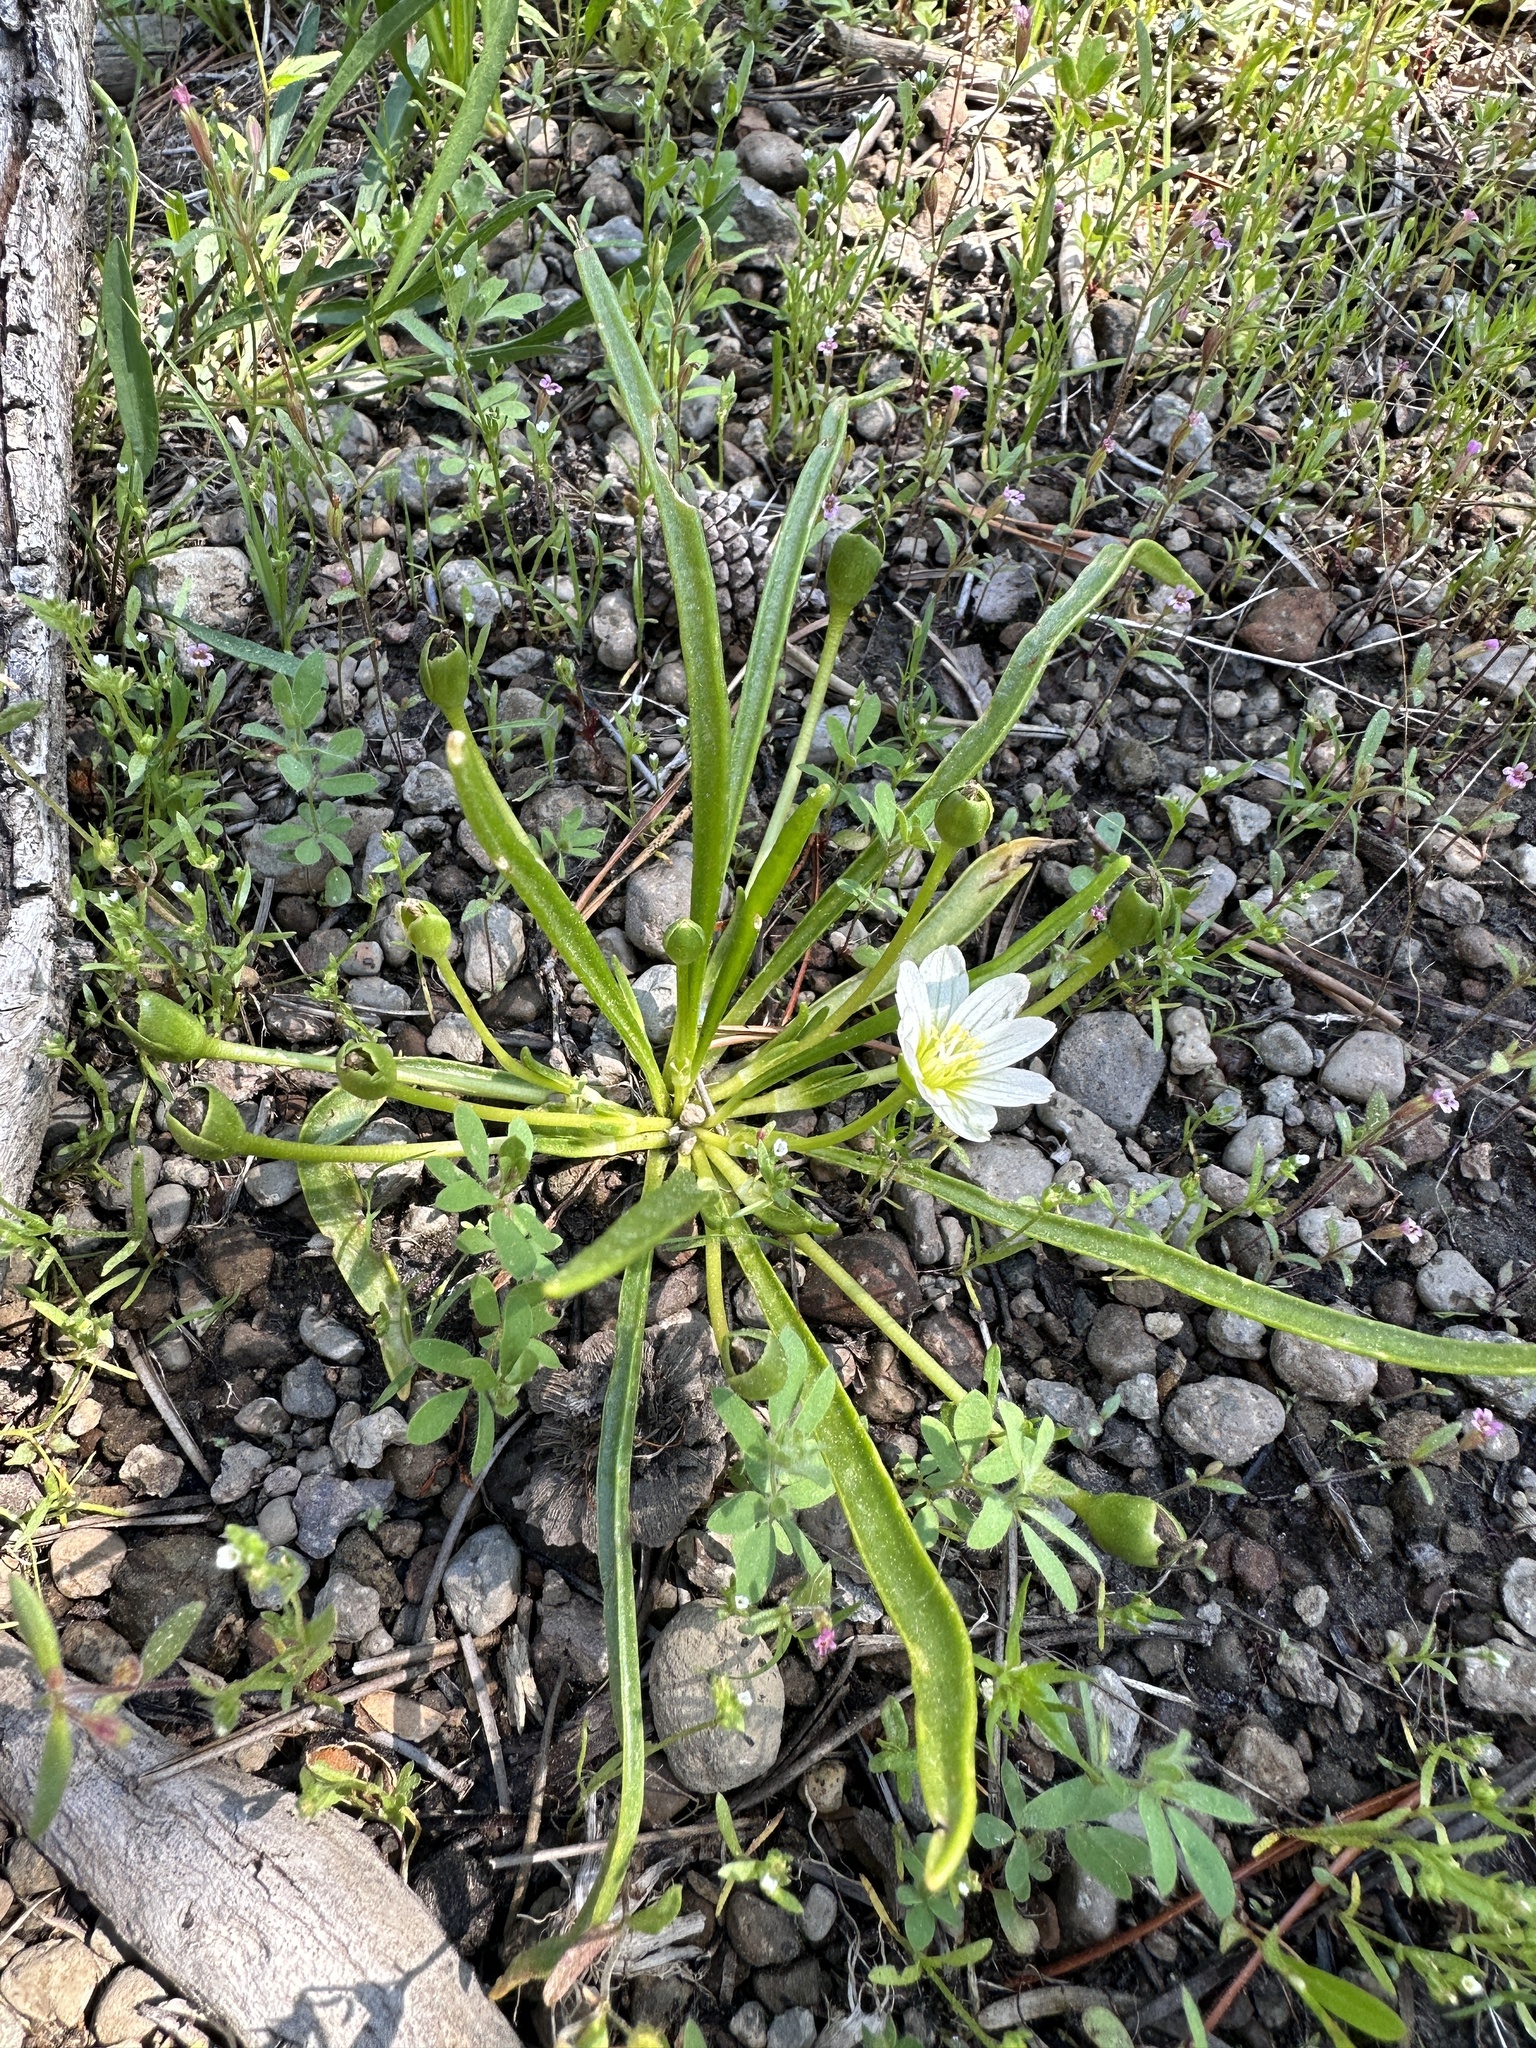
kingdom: Plantae
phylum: Tracheophyta
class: Magnoliopsida
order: Caryophyllales
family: Montiaceae
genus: Lewisia
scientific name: Lewisia nevadensis
